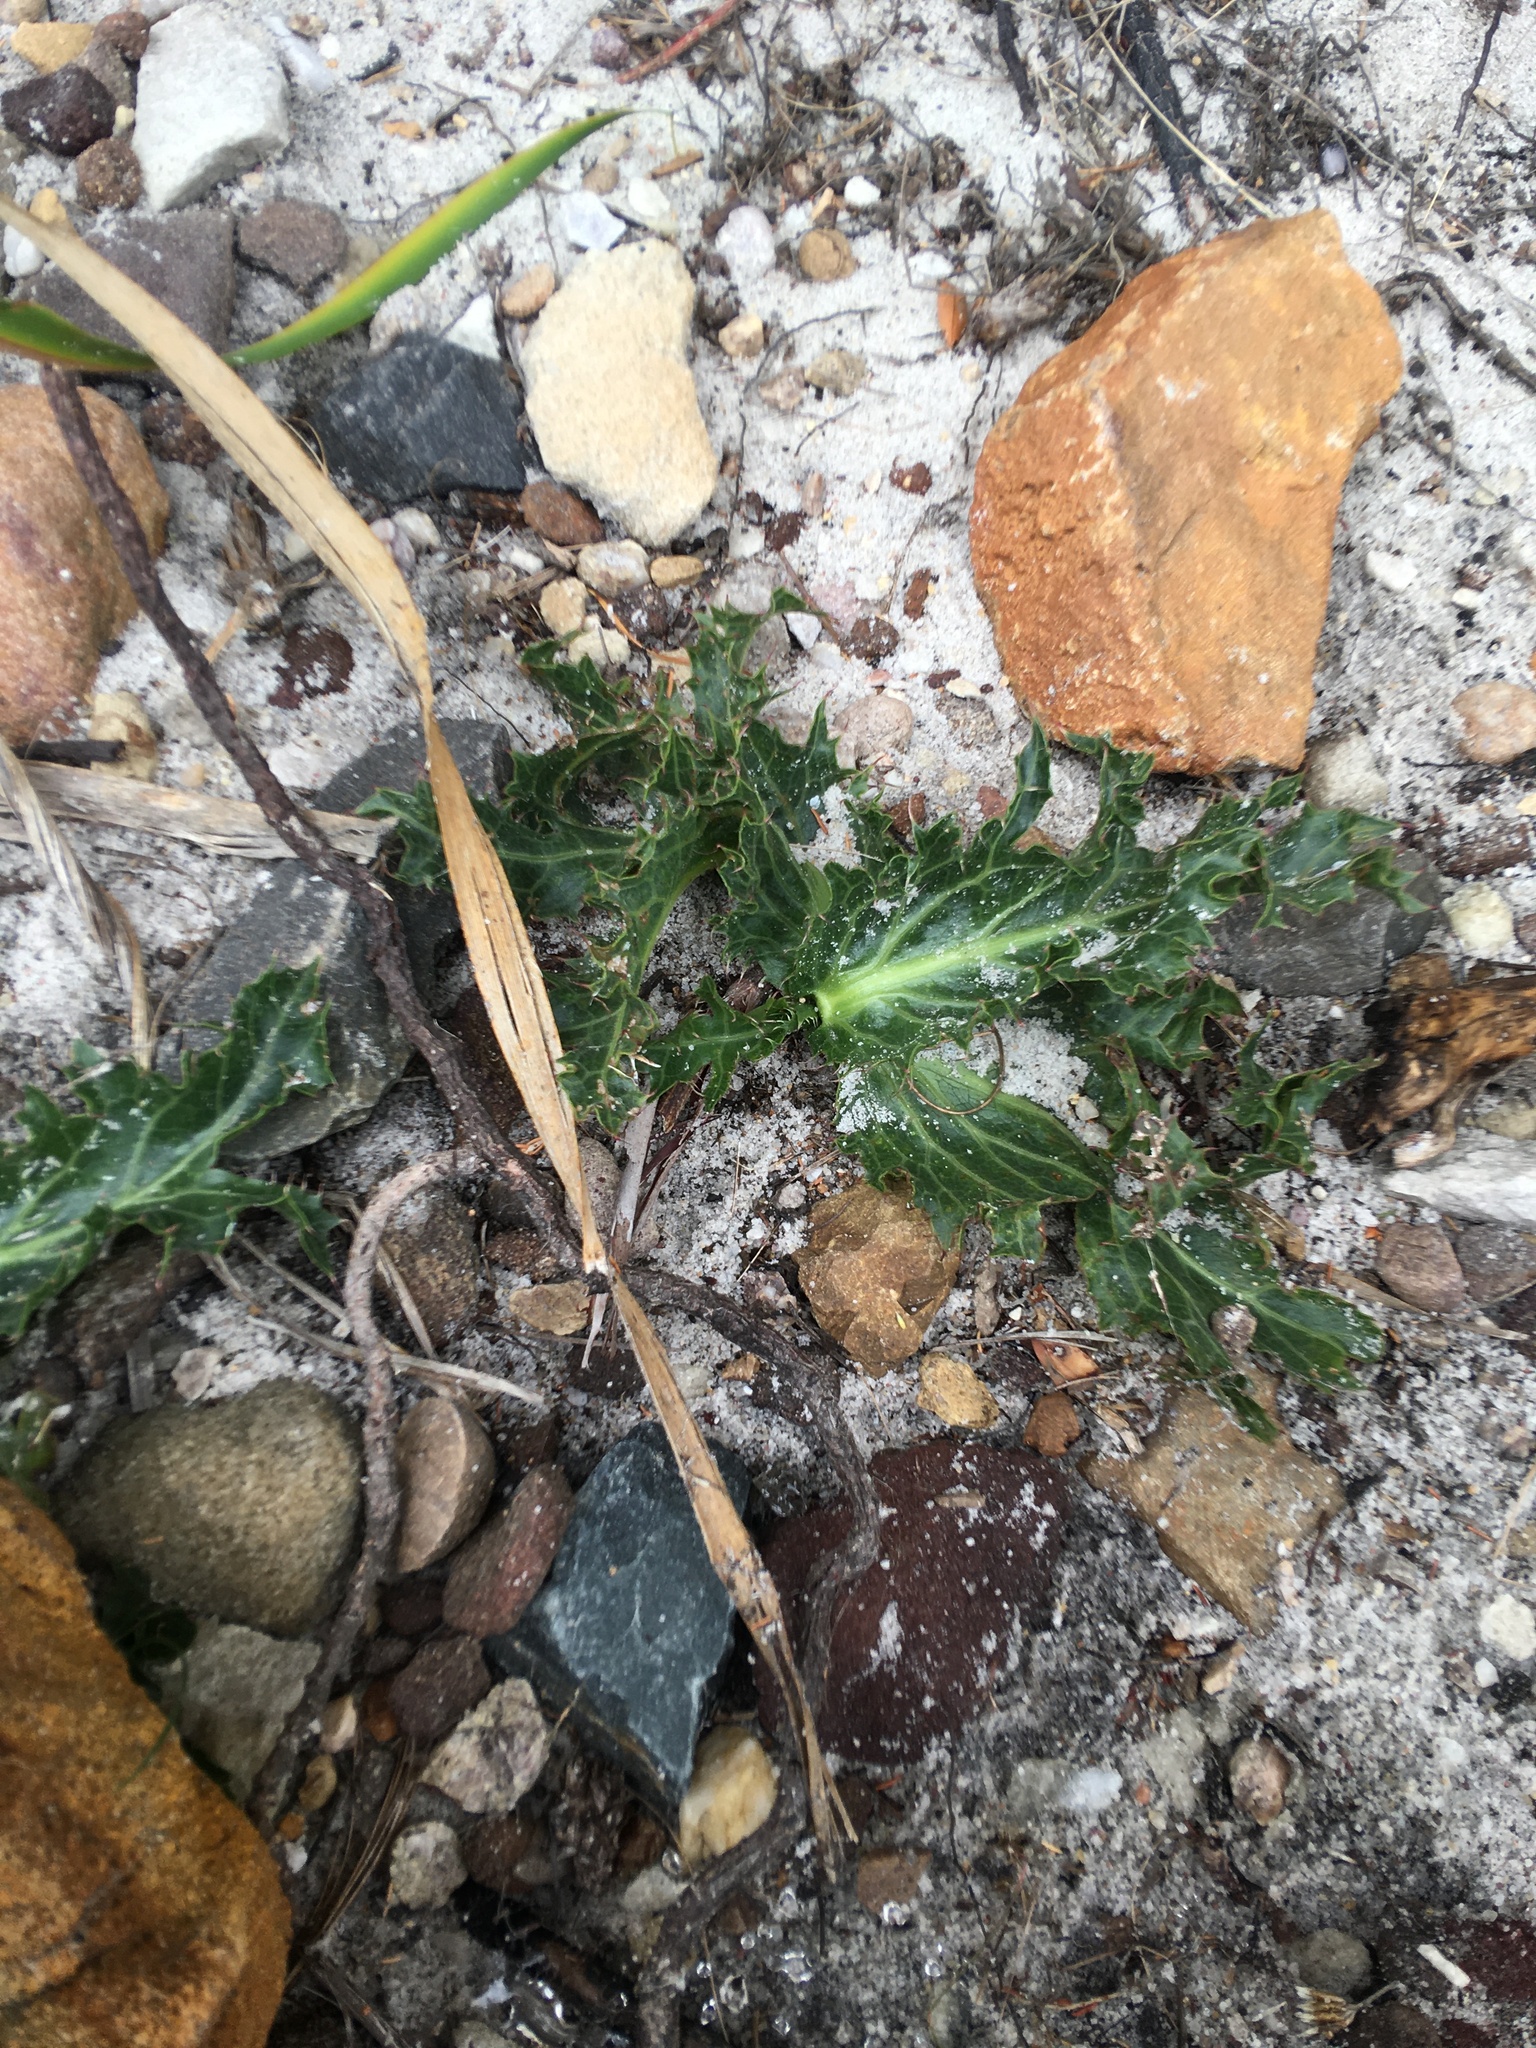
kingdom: Plantae
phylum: Tracheophyta
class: Magnoliopsida
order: Apiales
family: Apiaceae
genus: Lichtensteinia
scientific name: Lichtensteinia lacera
